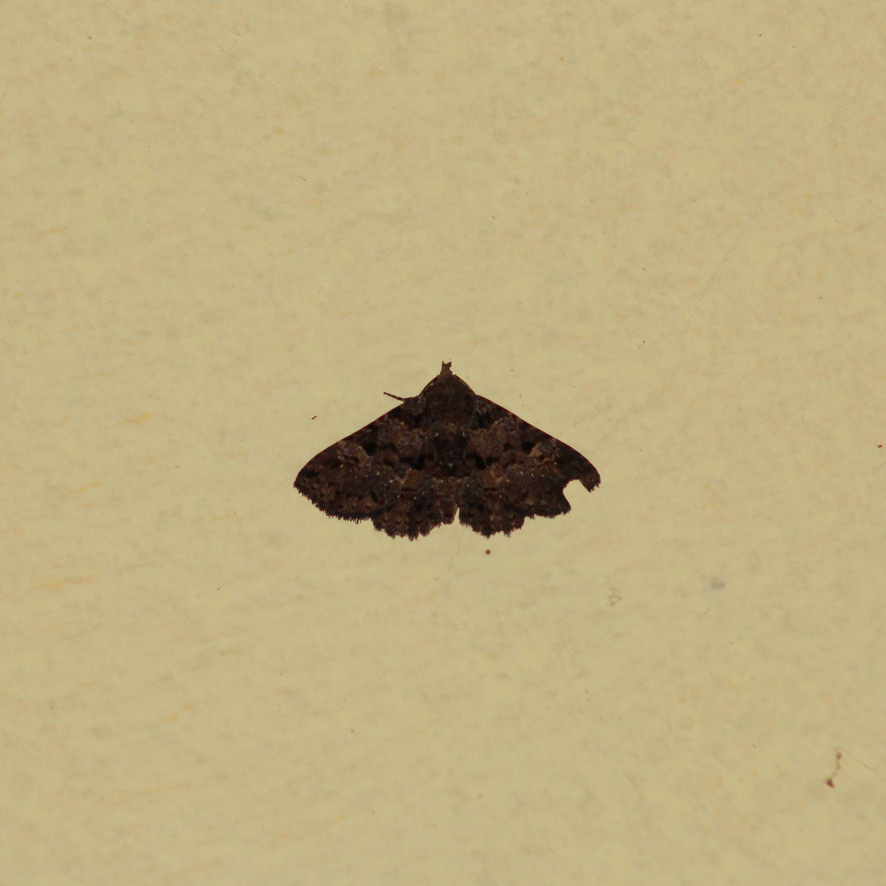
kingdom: Animalia
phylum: Arthropoda
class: Insecta
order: Lepidoptera
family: Erebidae
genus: Metalectra
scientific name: Metalectra praecisalis
